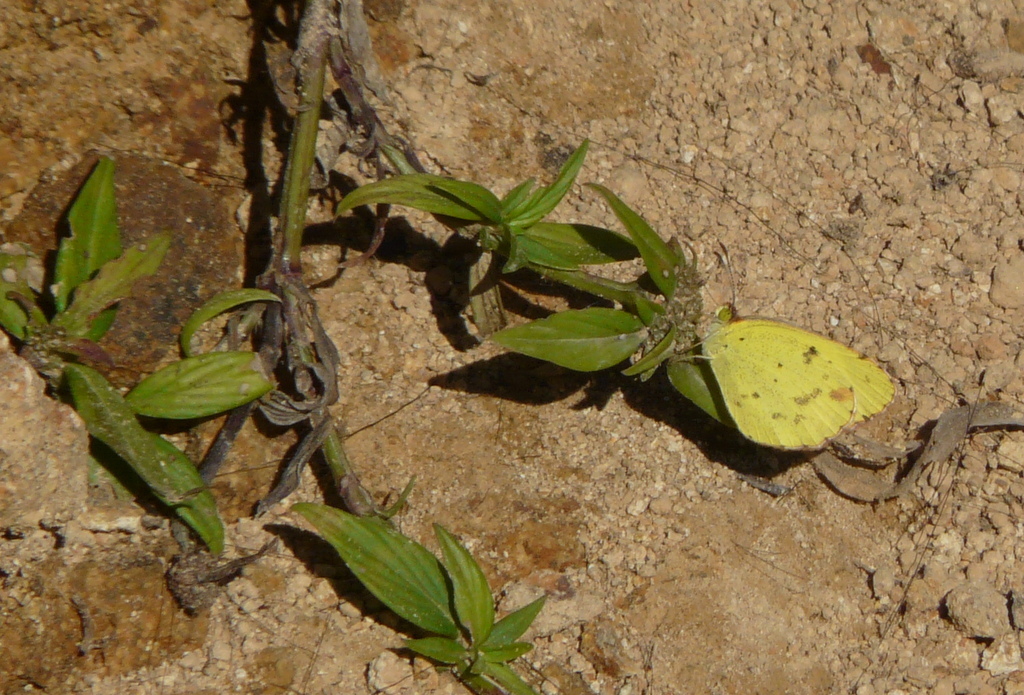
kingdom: Animalia
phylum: Arthropoda
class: Insecta
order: Lepidoptera
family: Pieridae
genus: Pyrisitia
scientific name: Pyrisitia nise
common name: Mimosa yellow
